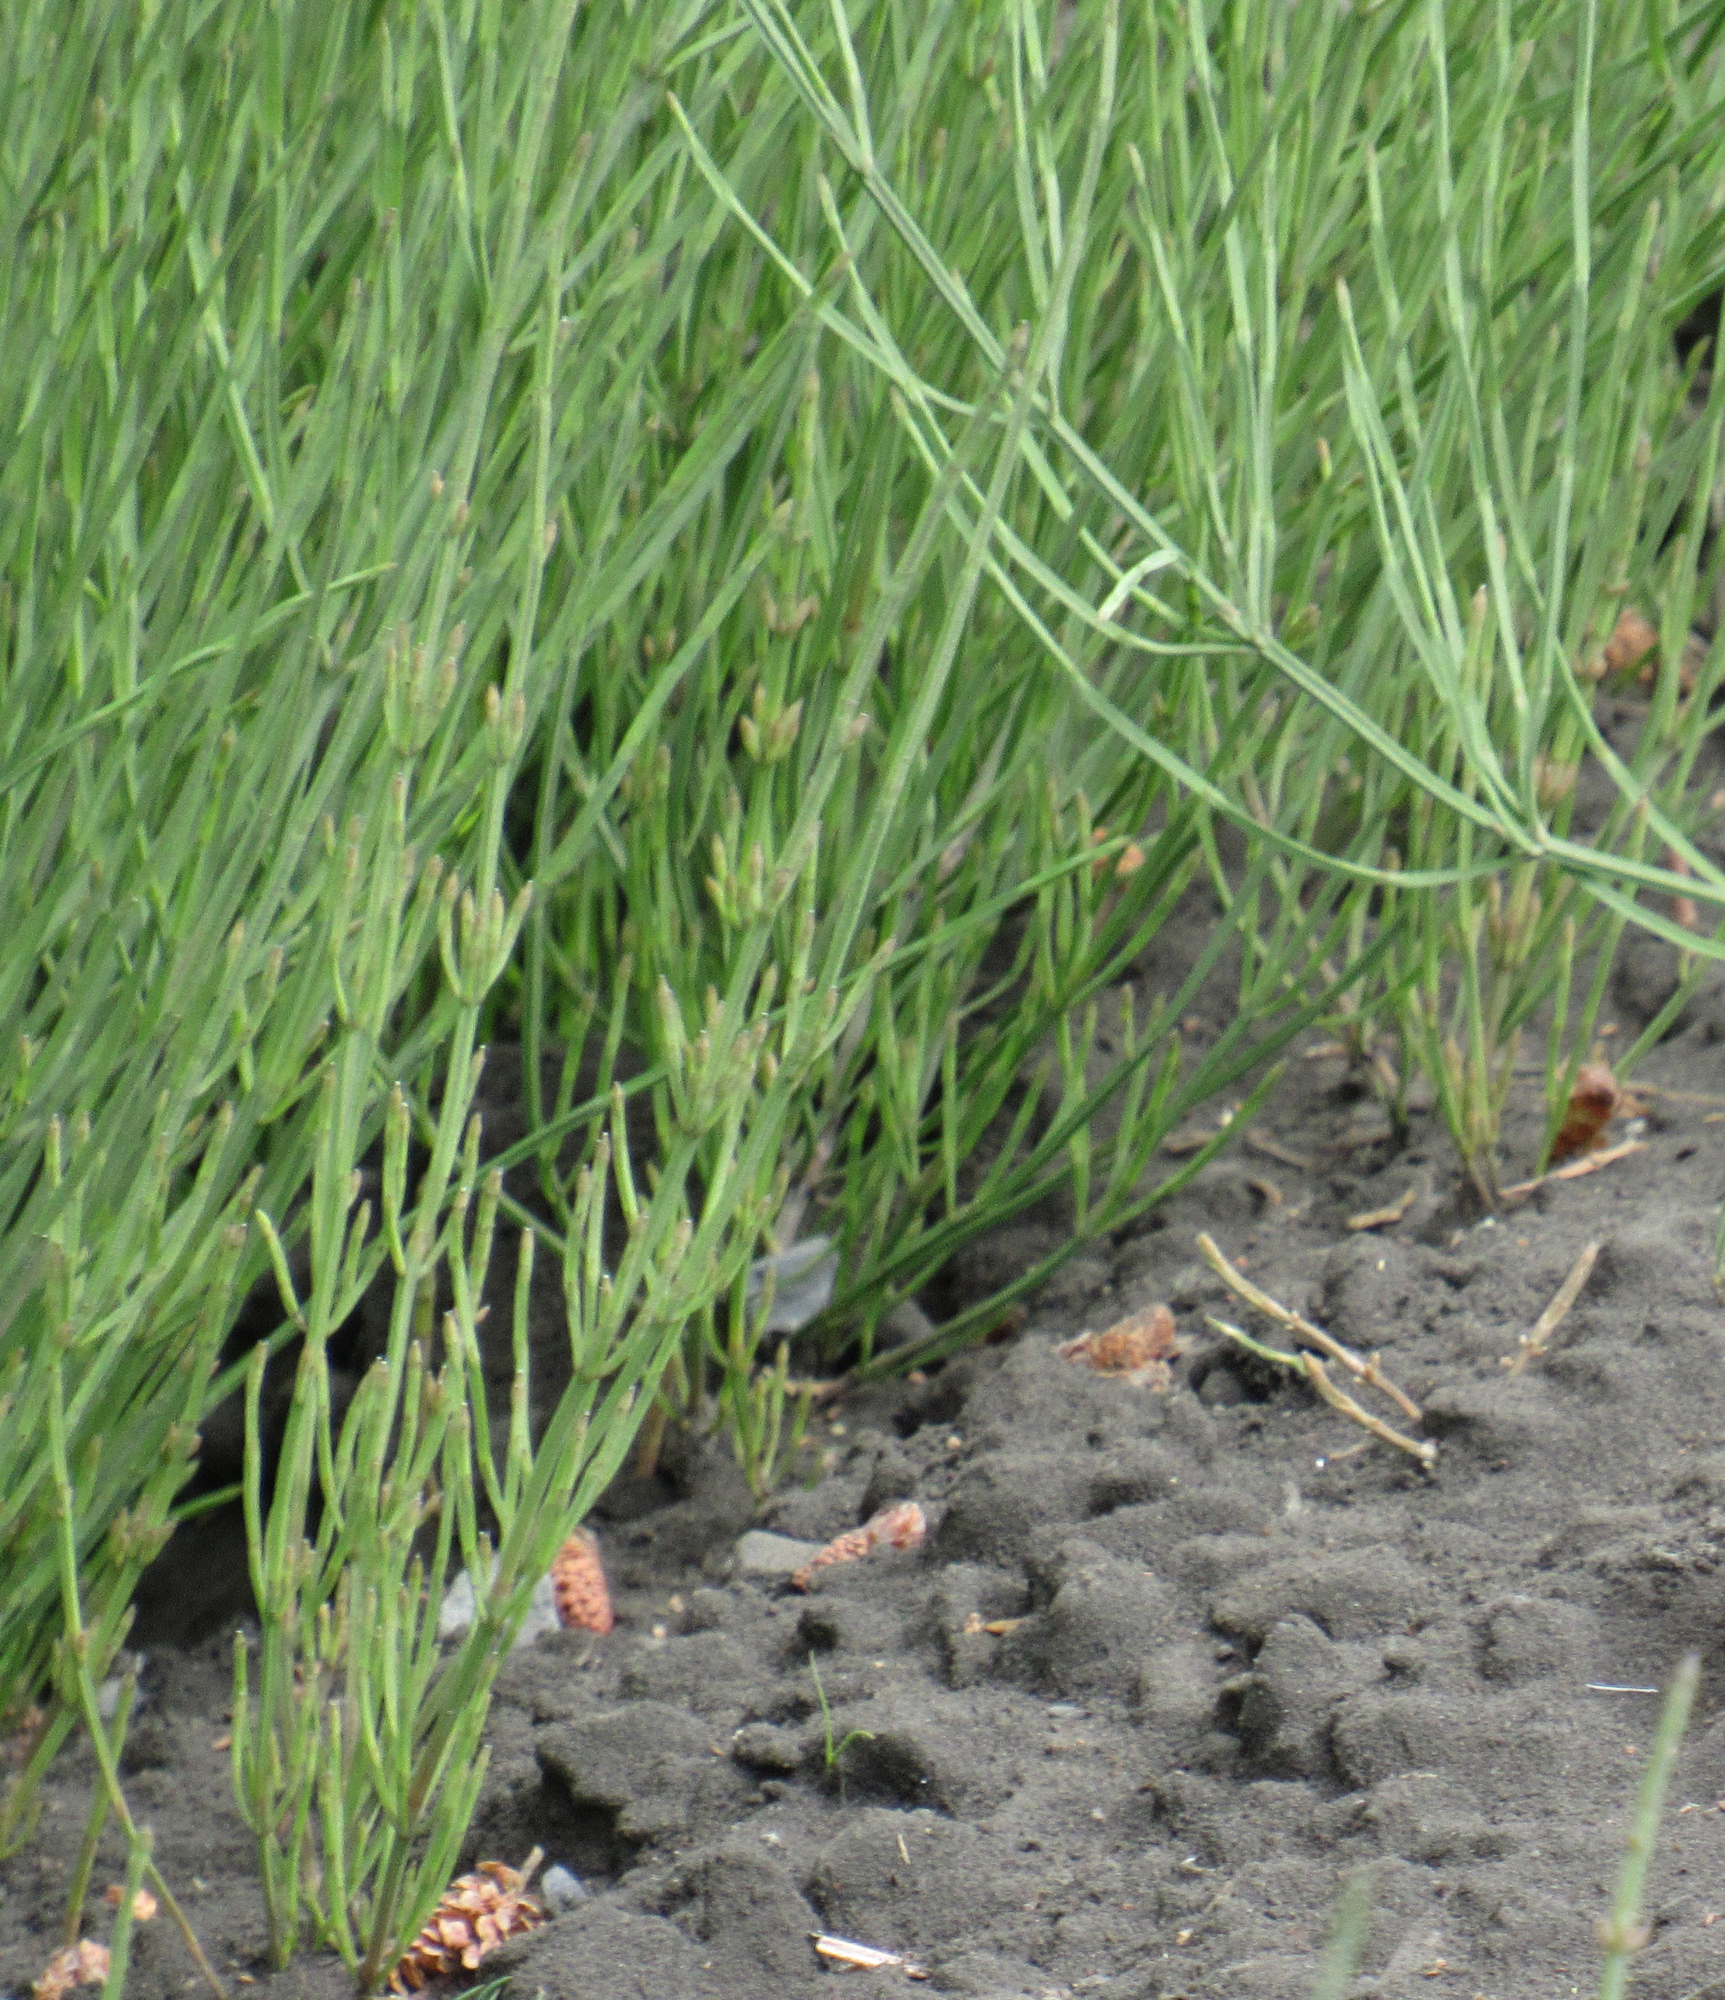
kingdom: Plantae
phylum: Tracheophyta
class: Polypodiopsida
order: Equisetales
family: Equisetaceae
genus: Equisetum
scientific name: Equisetum arvense
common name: Field horsetail
